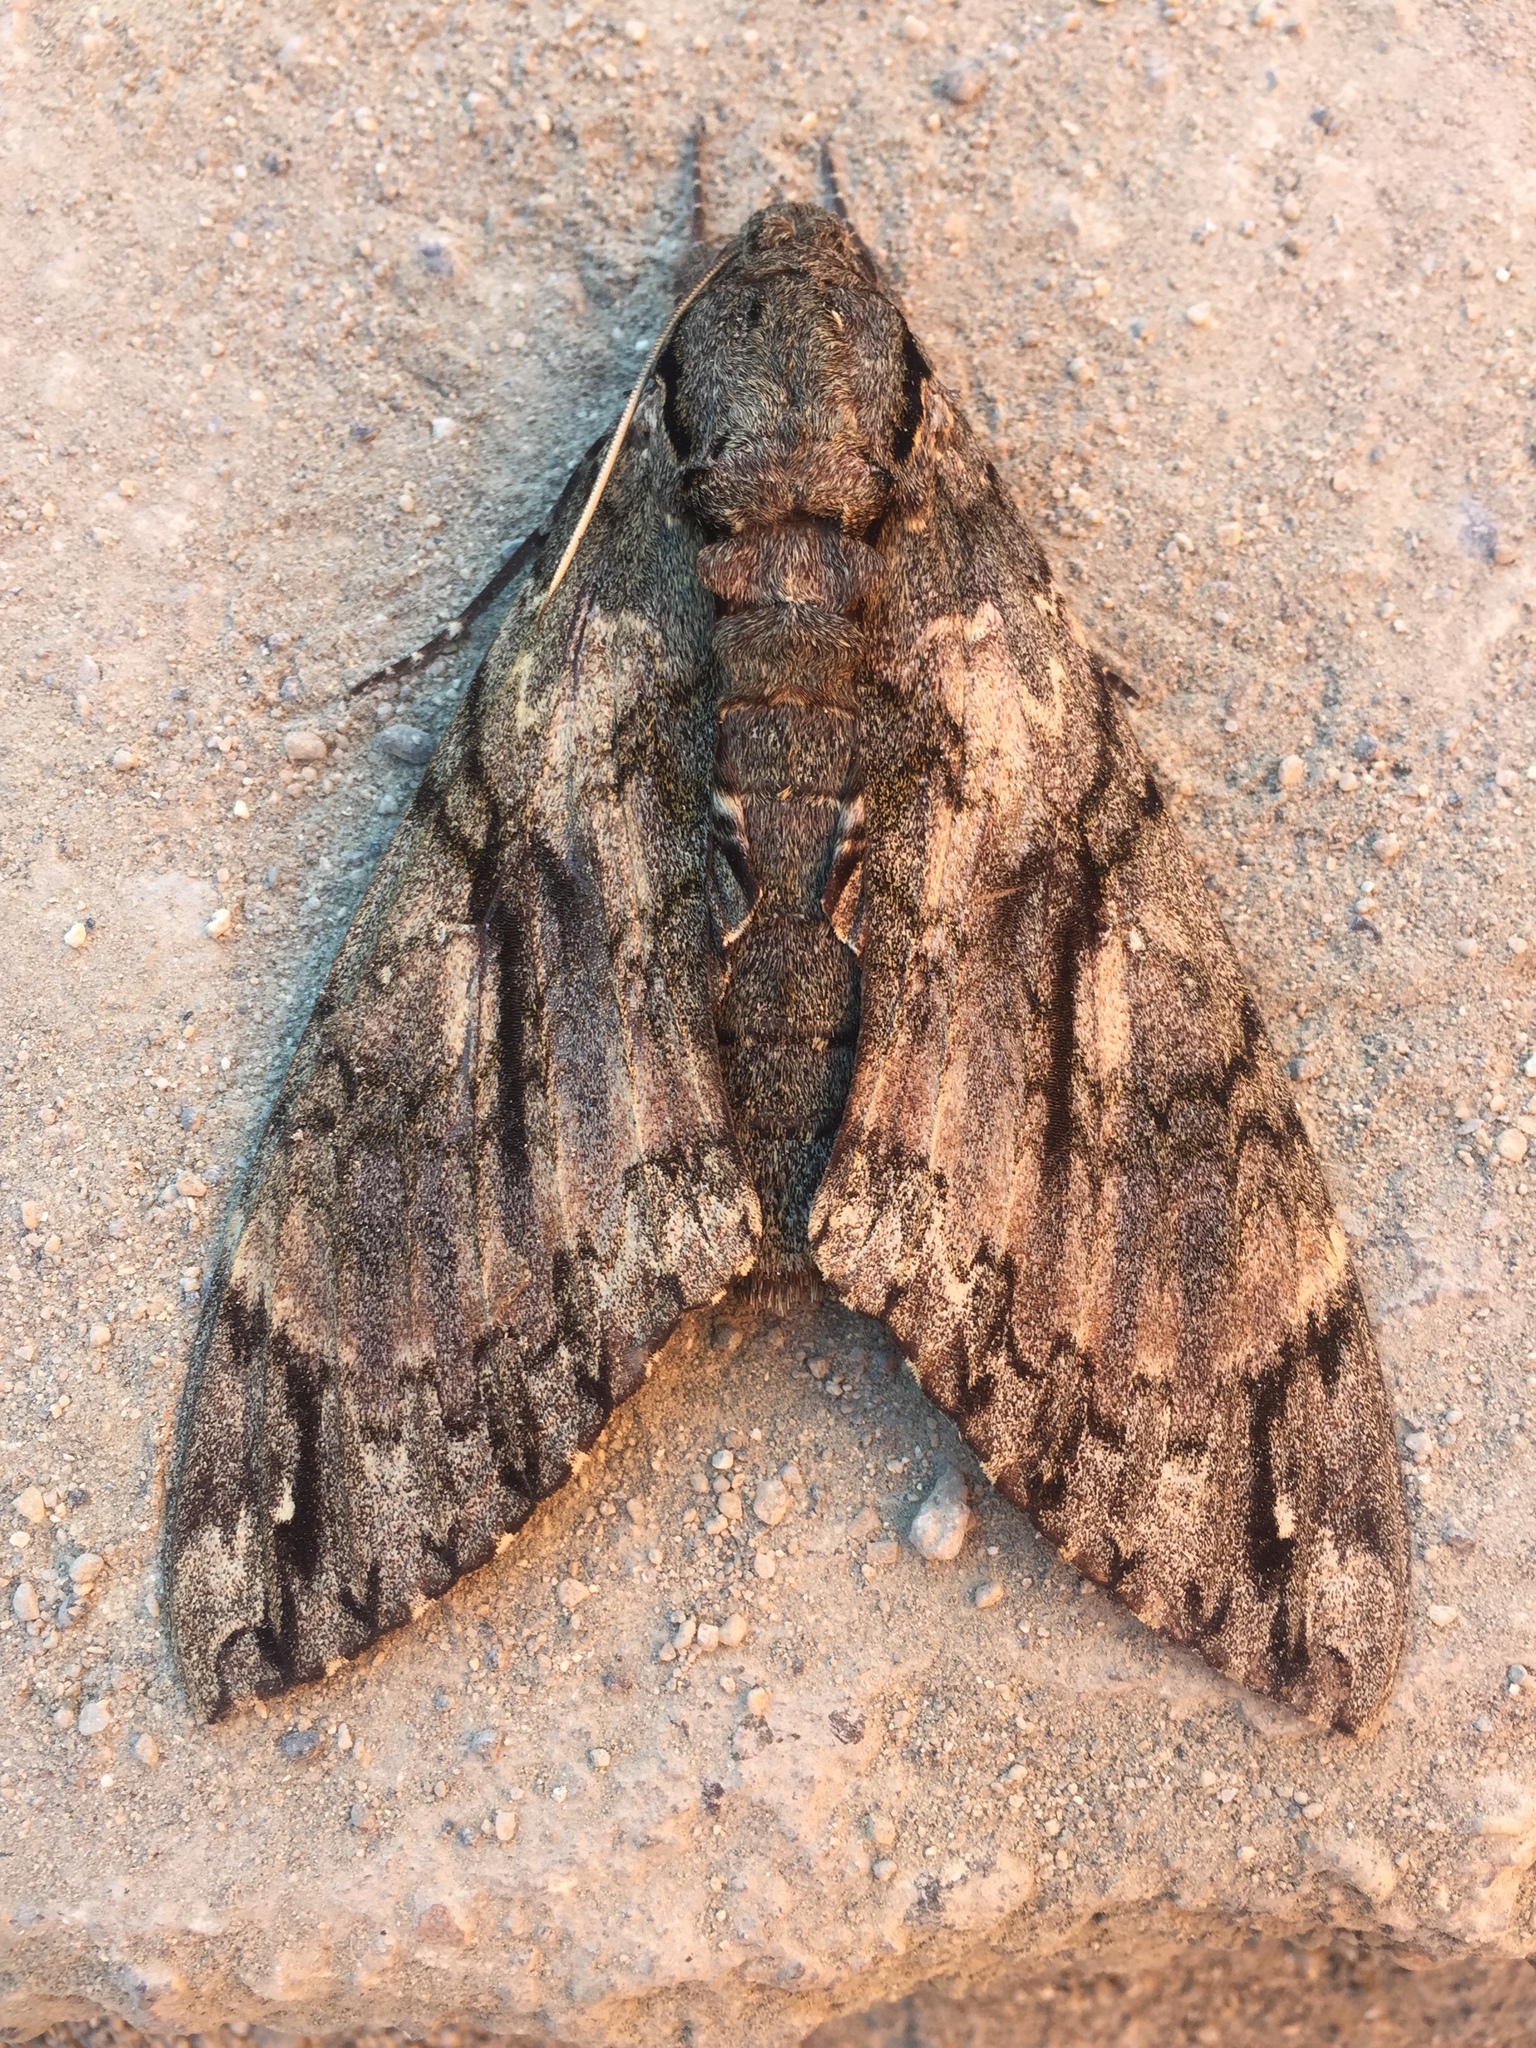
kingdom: Animalia
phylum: Arthropoda
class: Insecta
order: Lepidoptera
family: Sphingidae
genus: Cocytius
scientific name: Cocytius antaeus
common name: Giant sphinx
